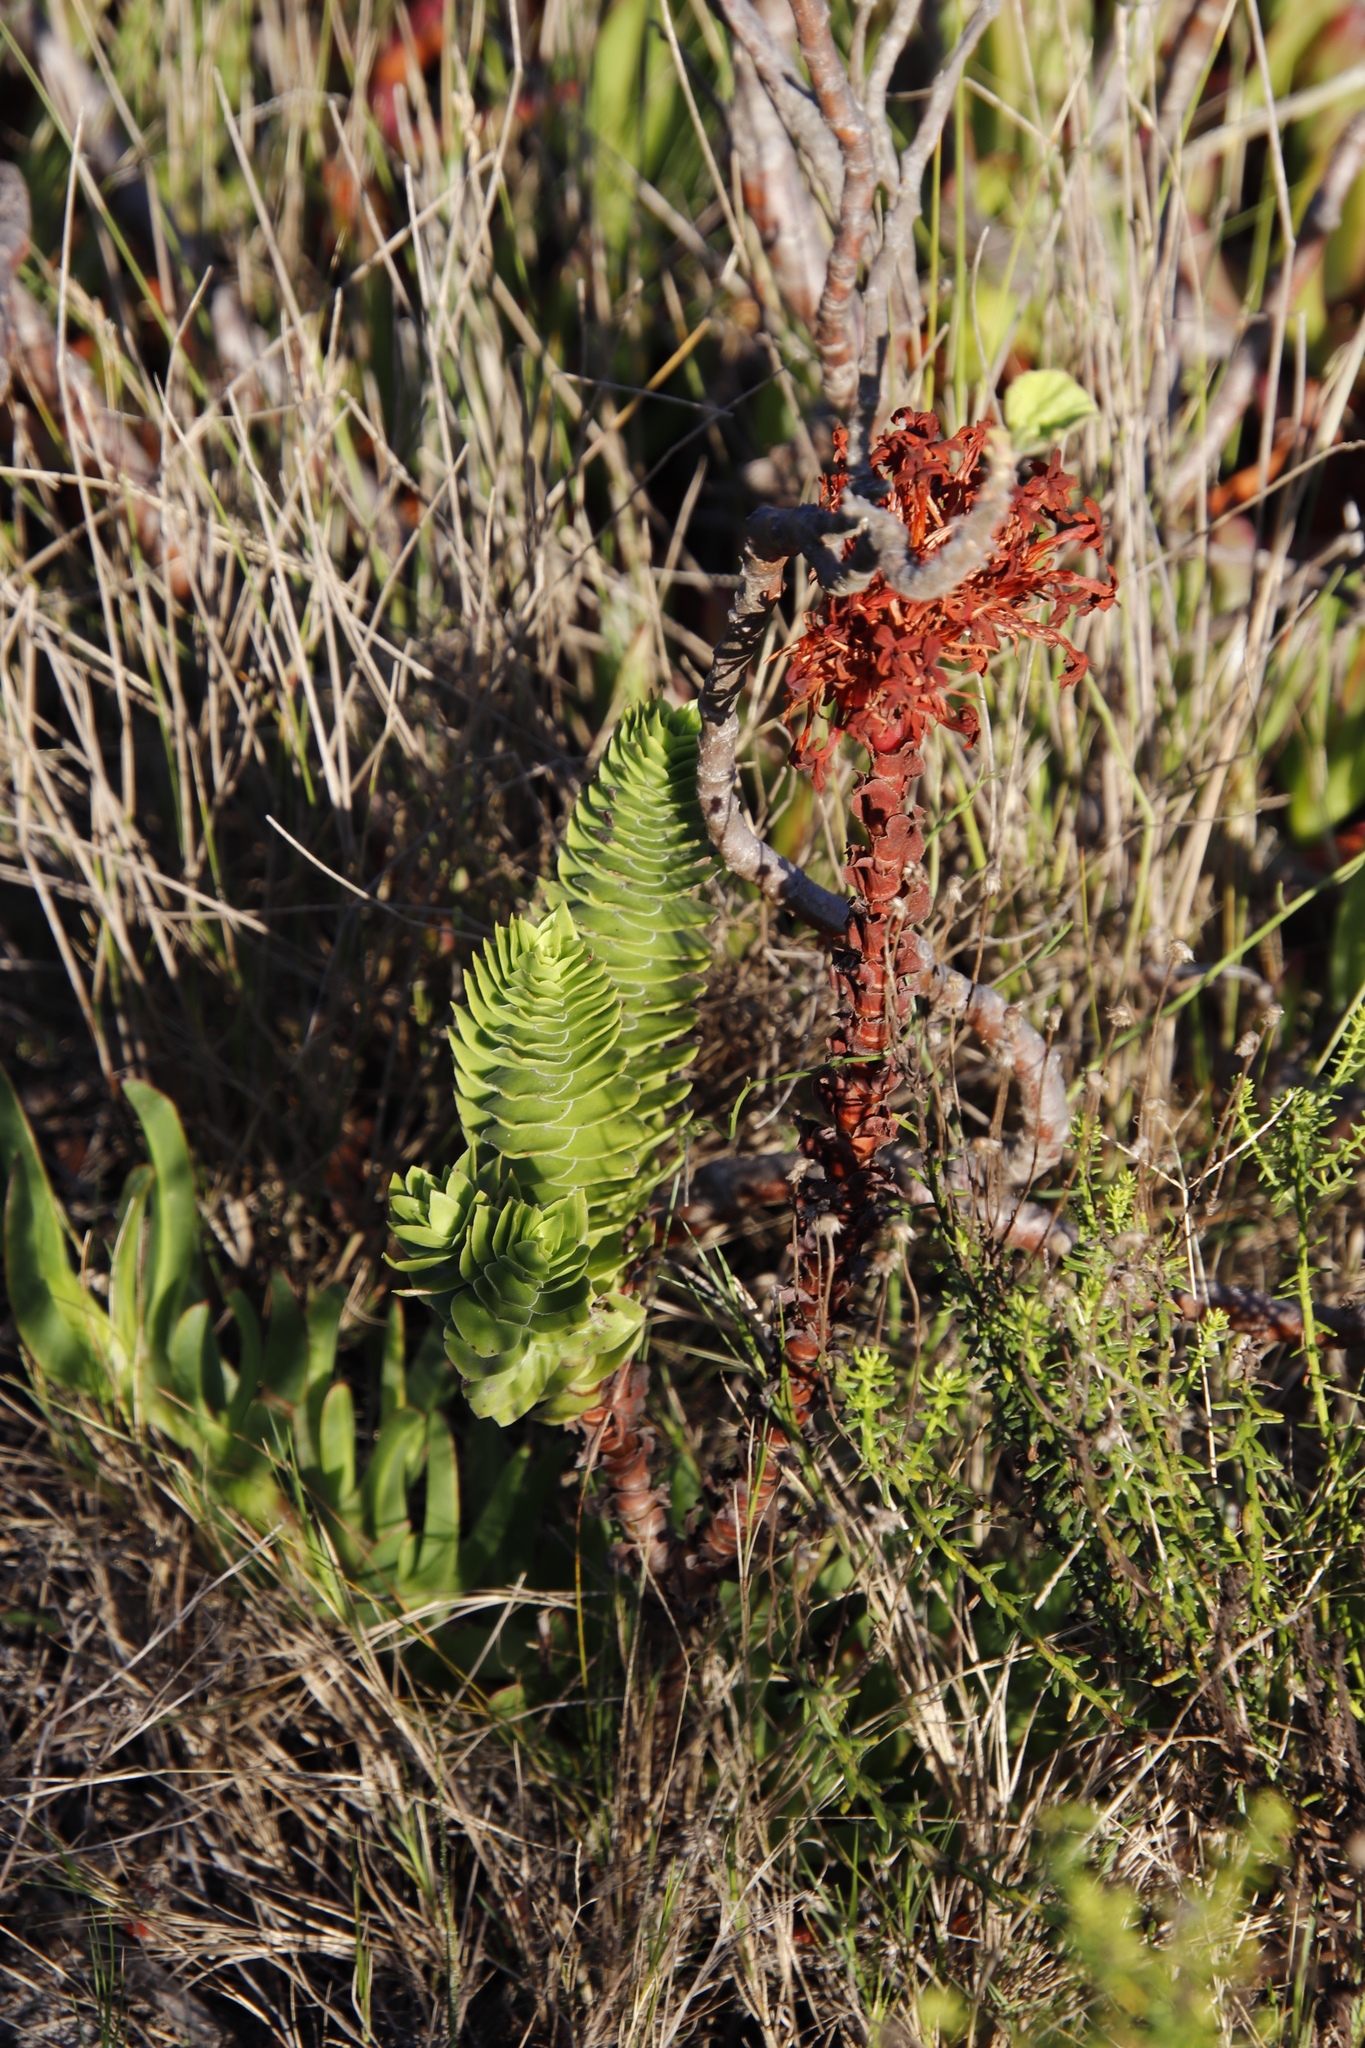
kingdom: Plantae
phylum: Tracheophyta
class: Magnoliopsida
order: Saxifragales
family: Crassulaceae
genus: Crassula
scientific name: Crassula coccinea
